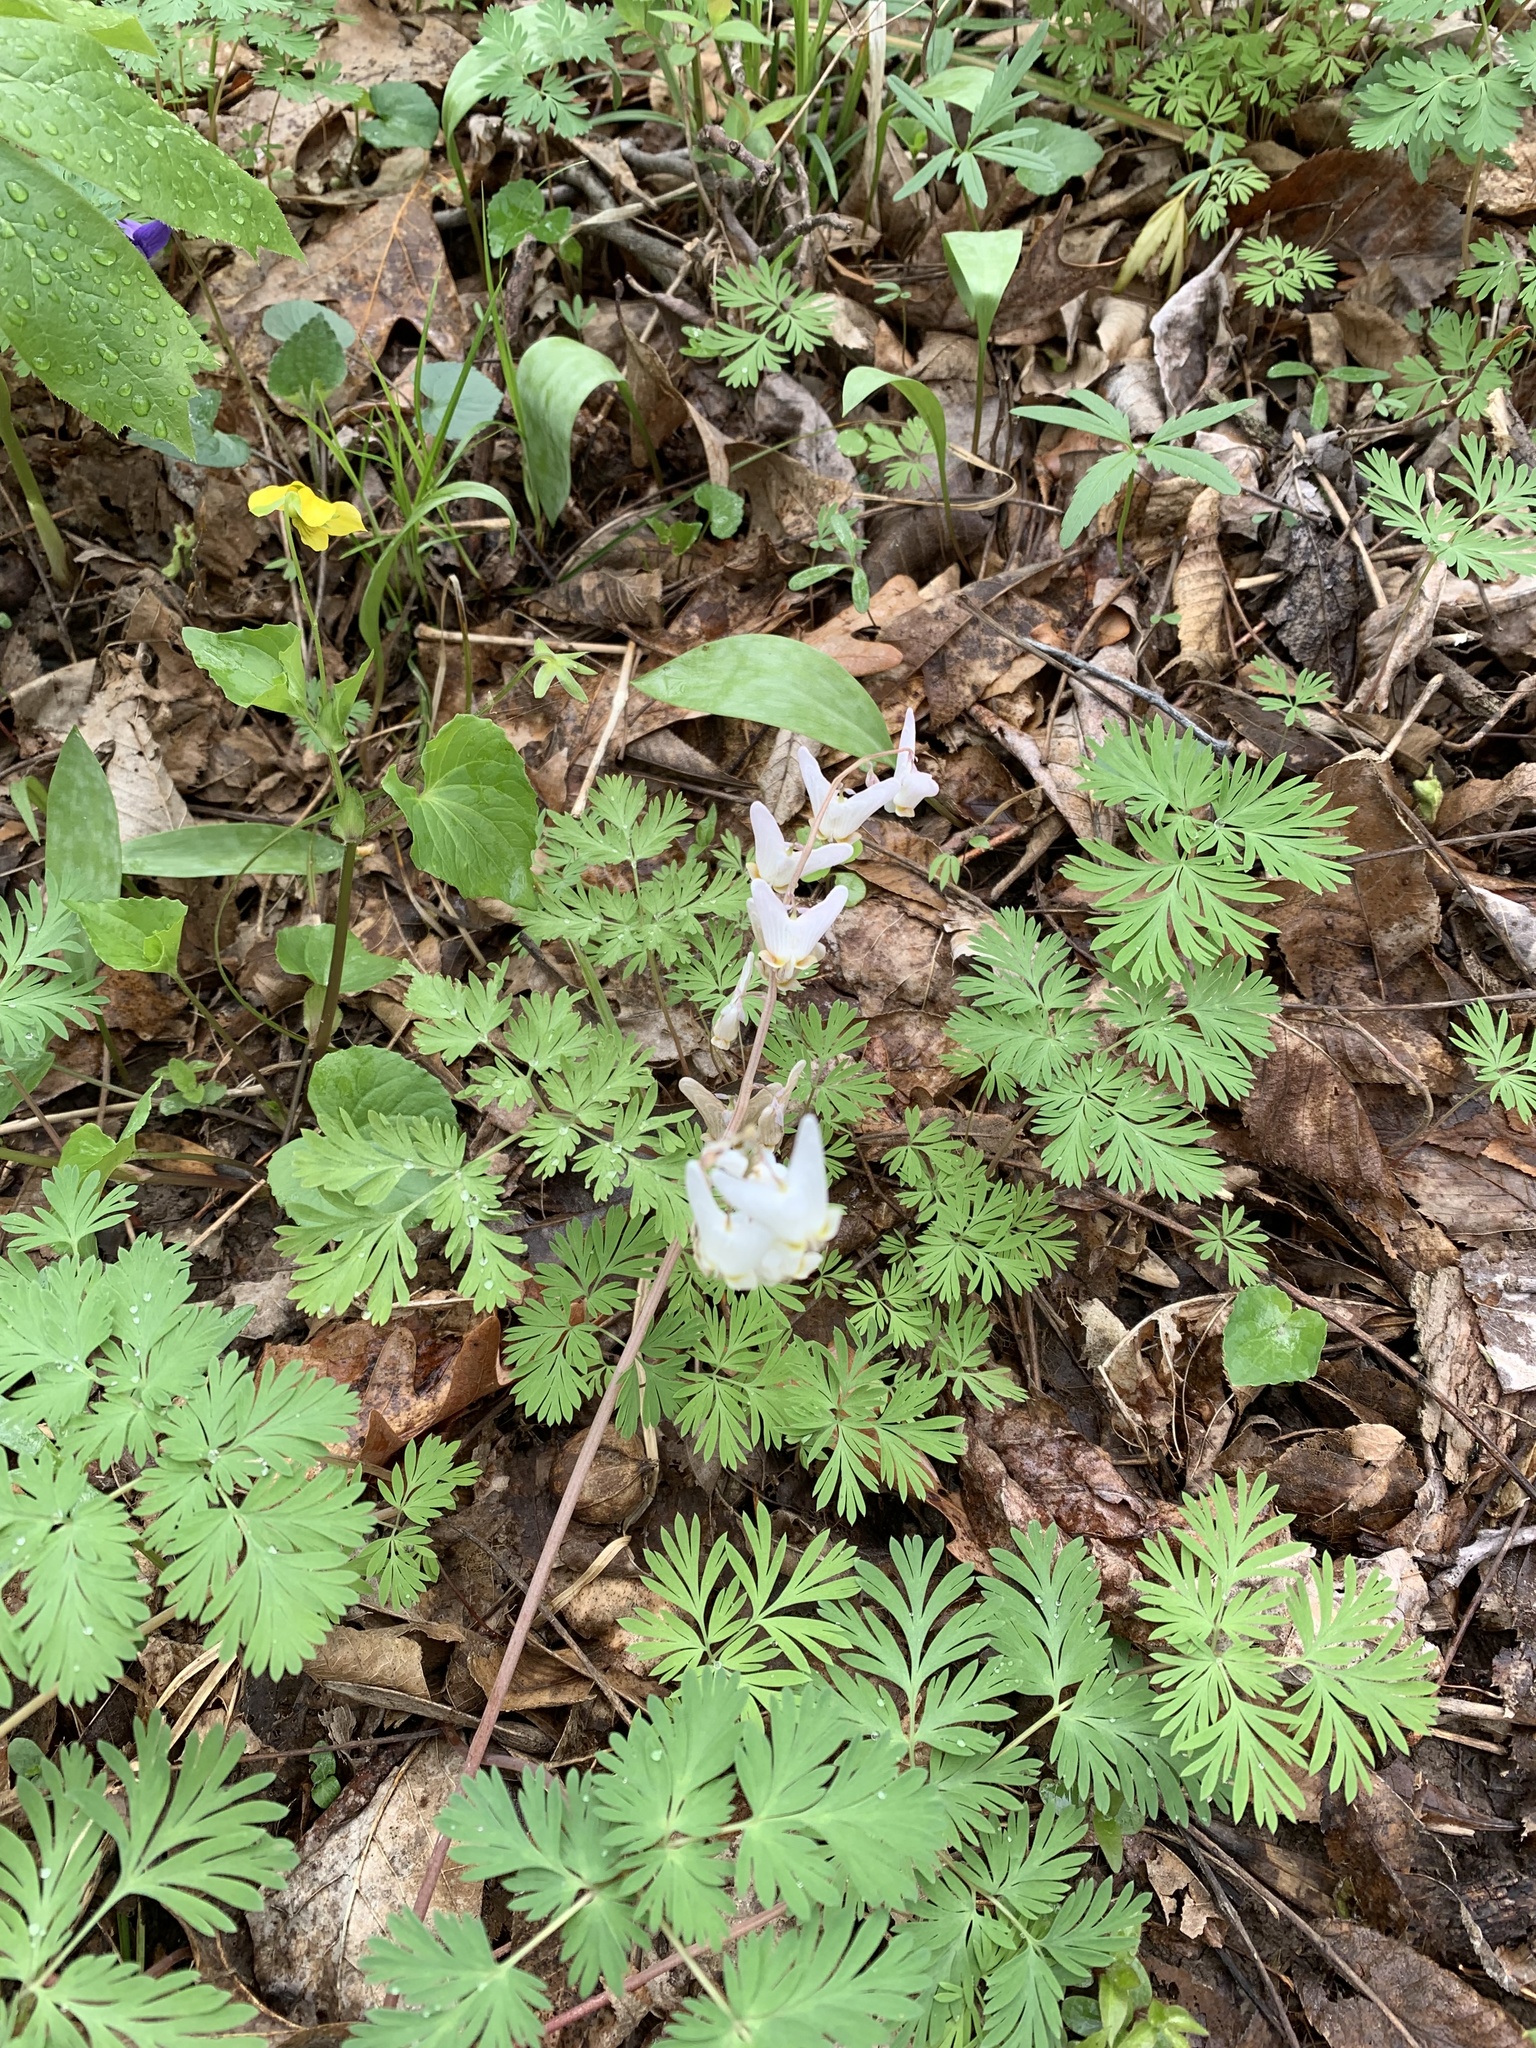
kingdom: Plantae
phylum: Tracheophyta
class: Magnoliopsida
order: Ranunculales
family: Papaveraceae
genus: Dicentra
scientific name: Dicentra cucullaria
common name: Dutchman's breeches
